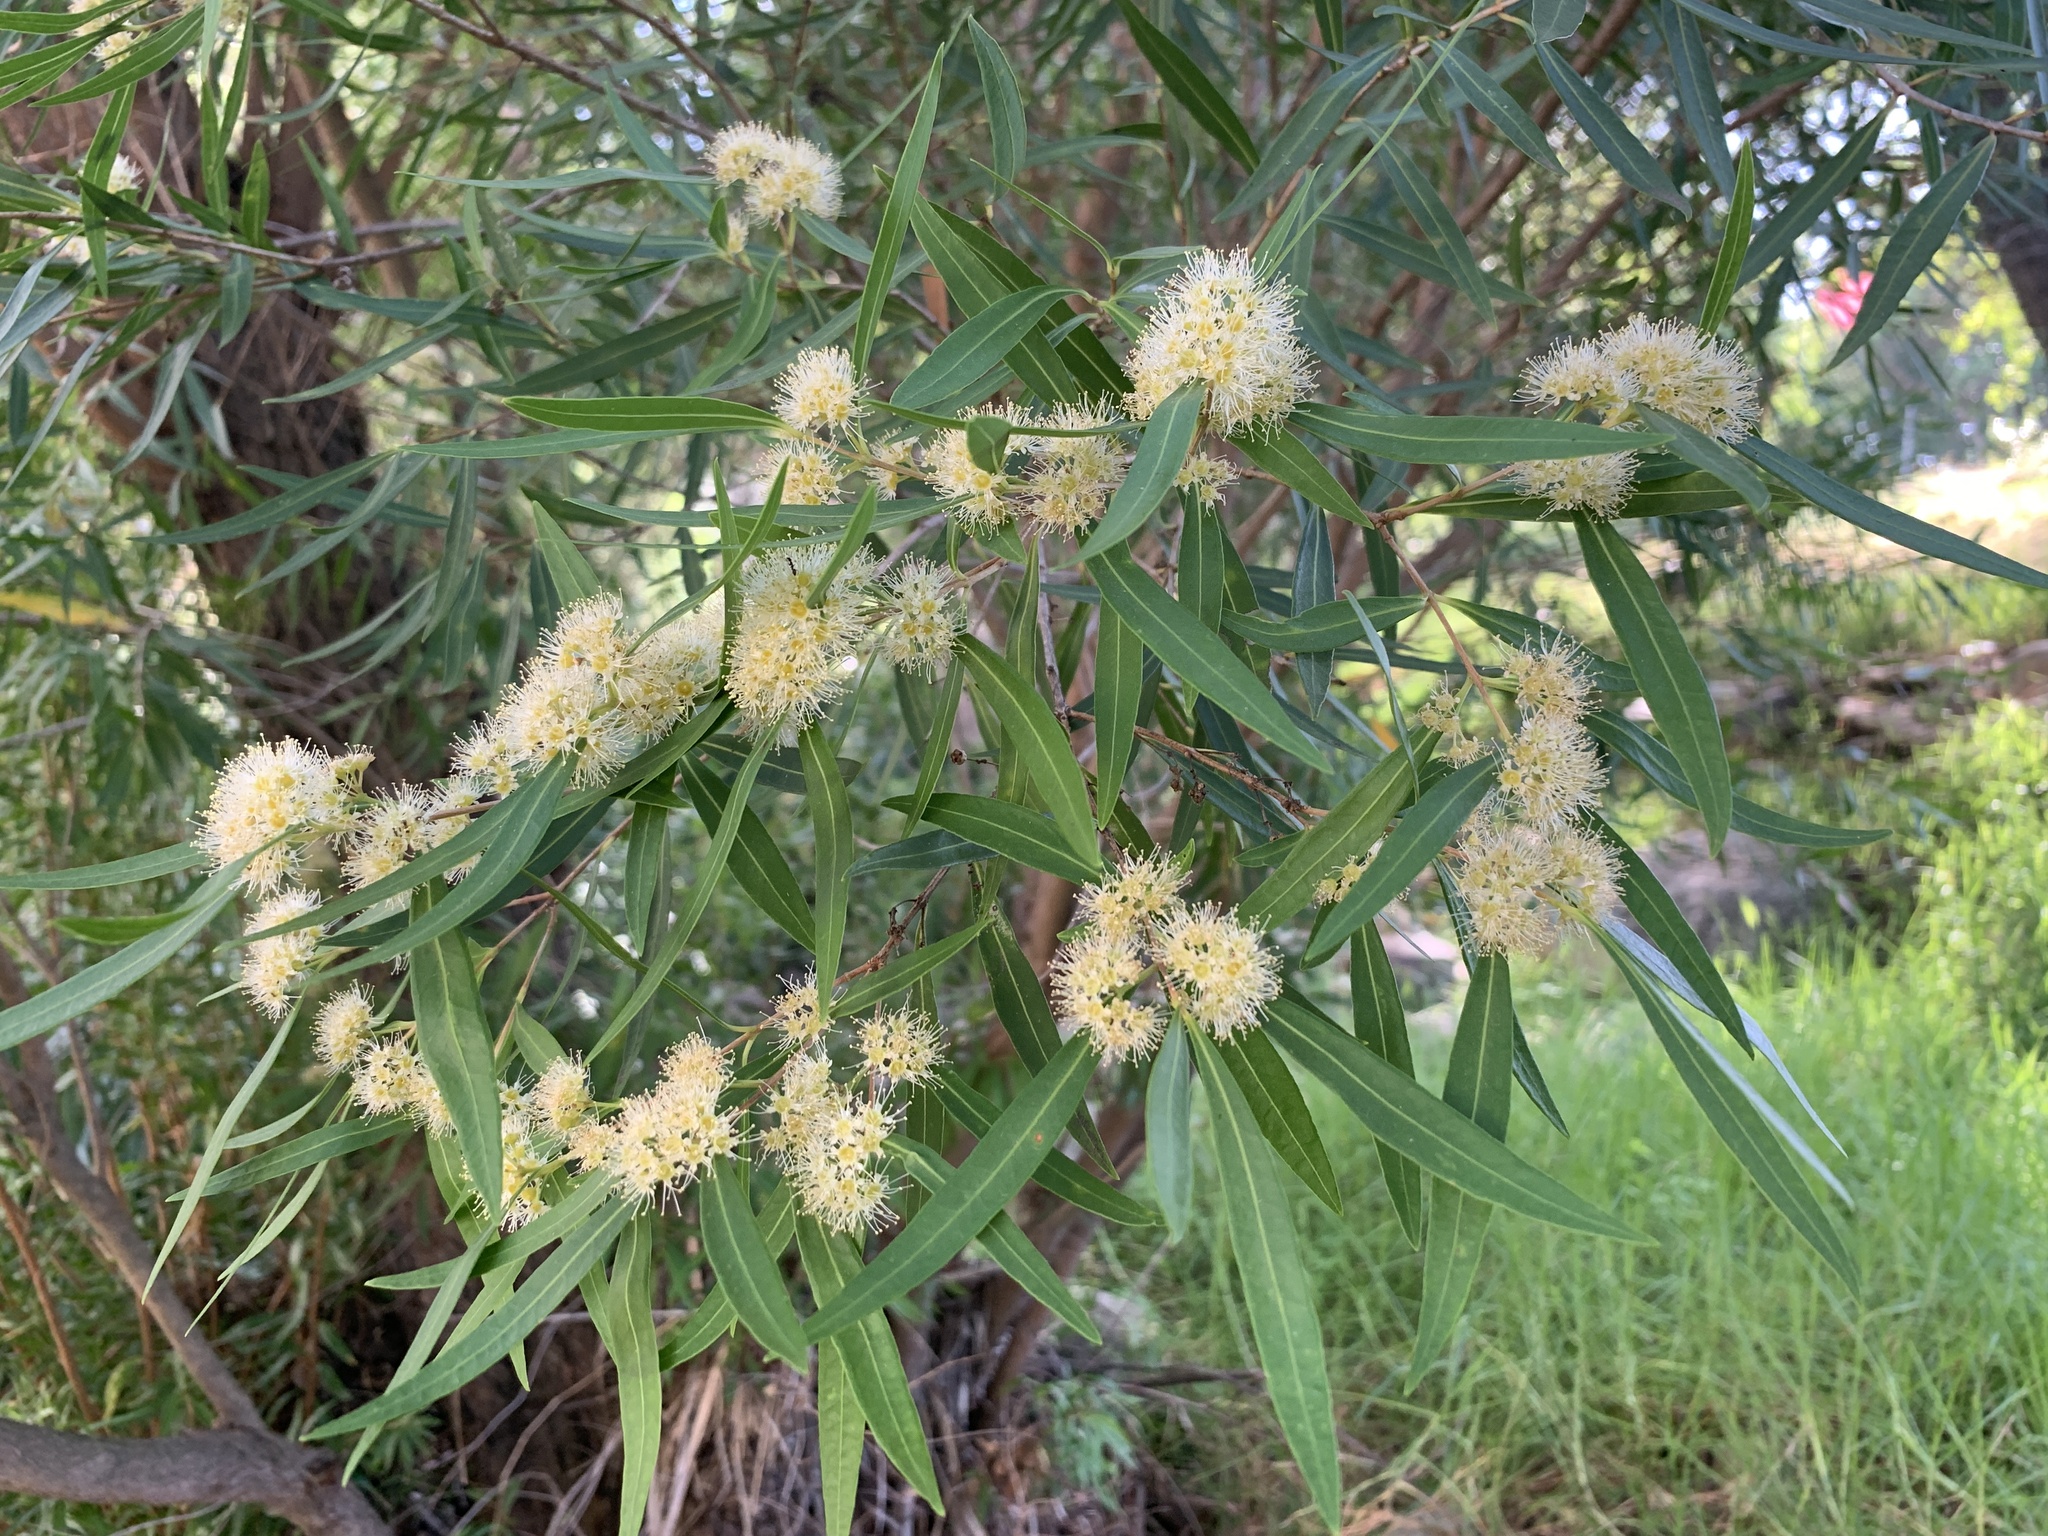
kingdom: Plantae
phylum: Tracheophyta
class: Magnoliopsida
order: Myrtales
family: Myrtaceae
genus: Callistemon
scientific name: Callistemon lanceolatus
